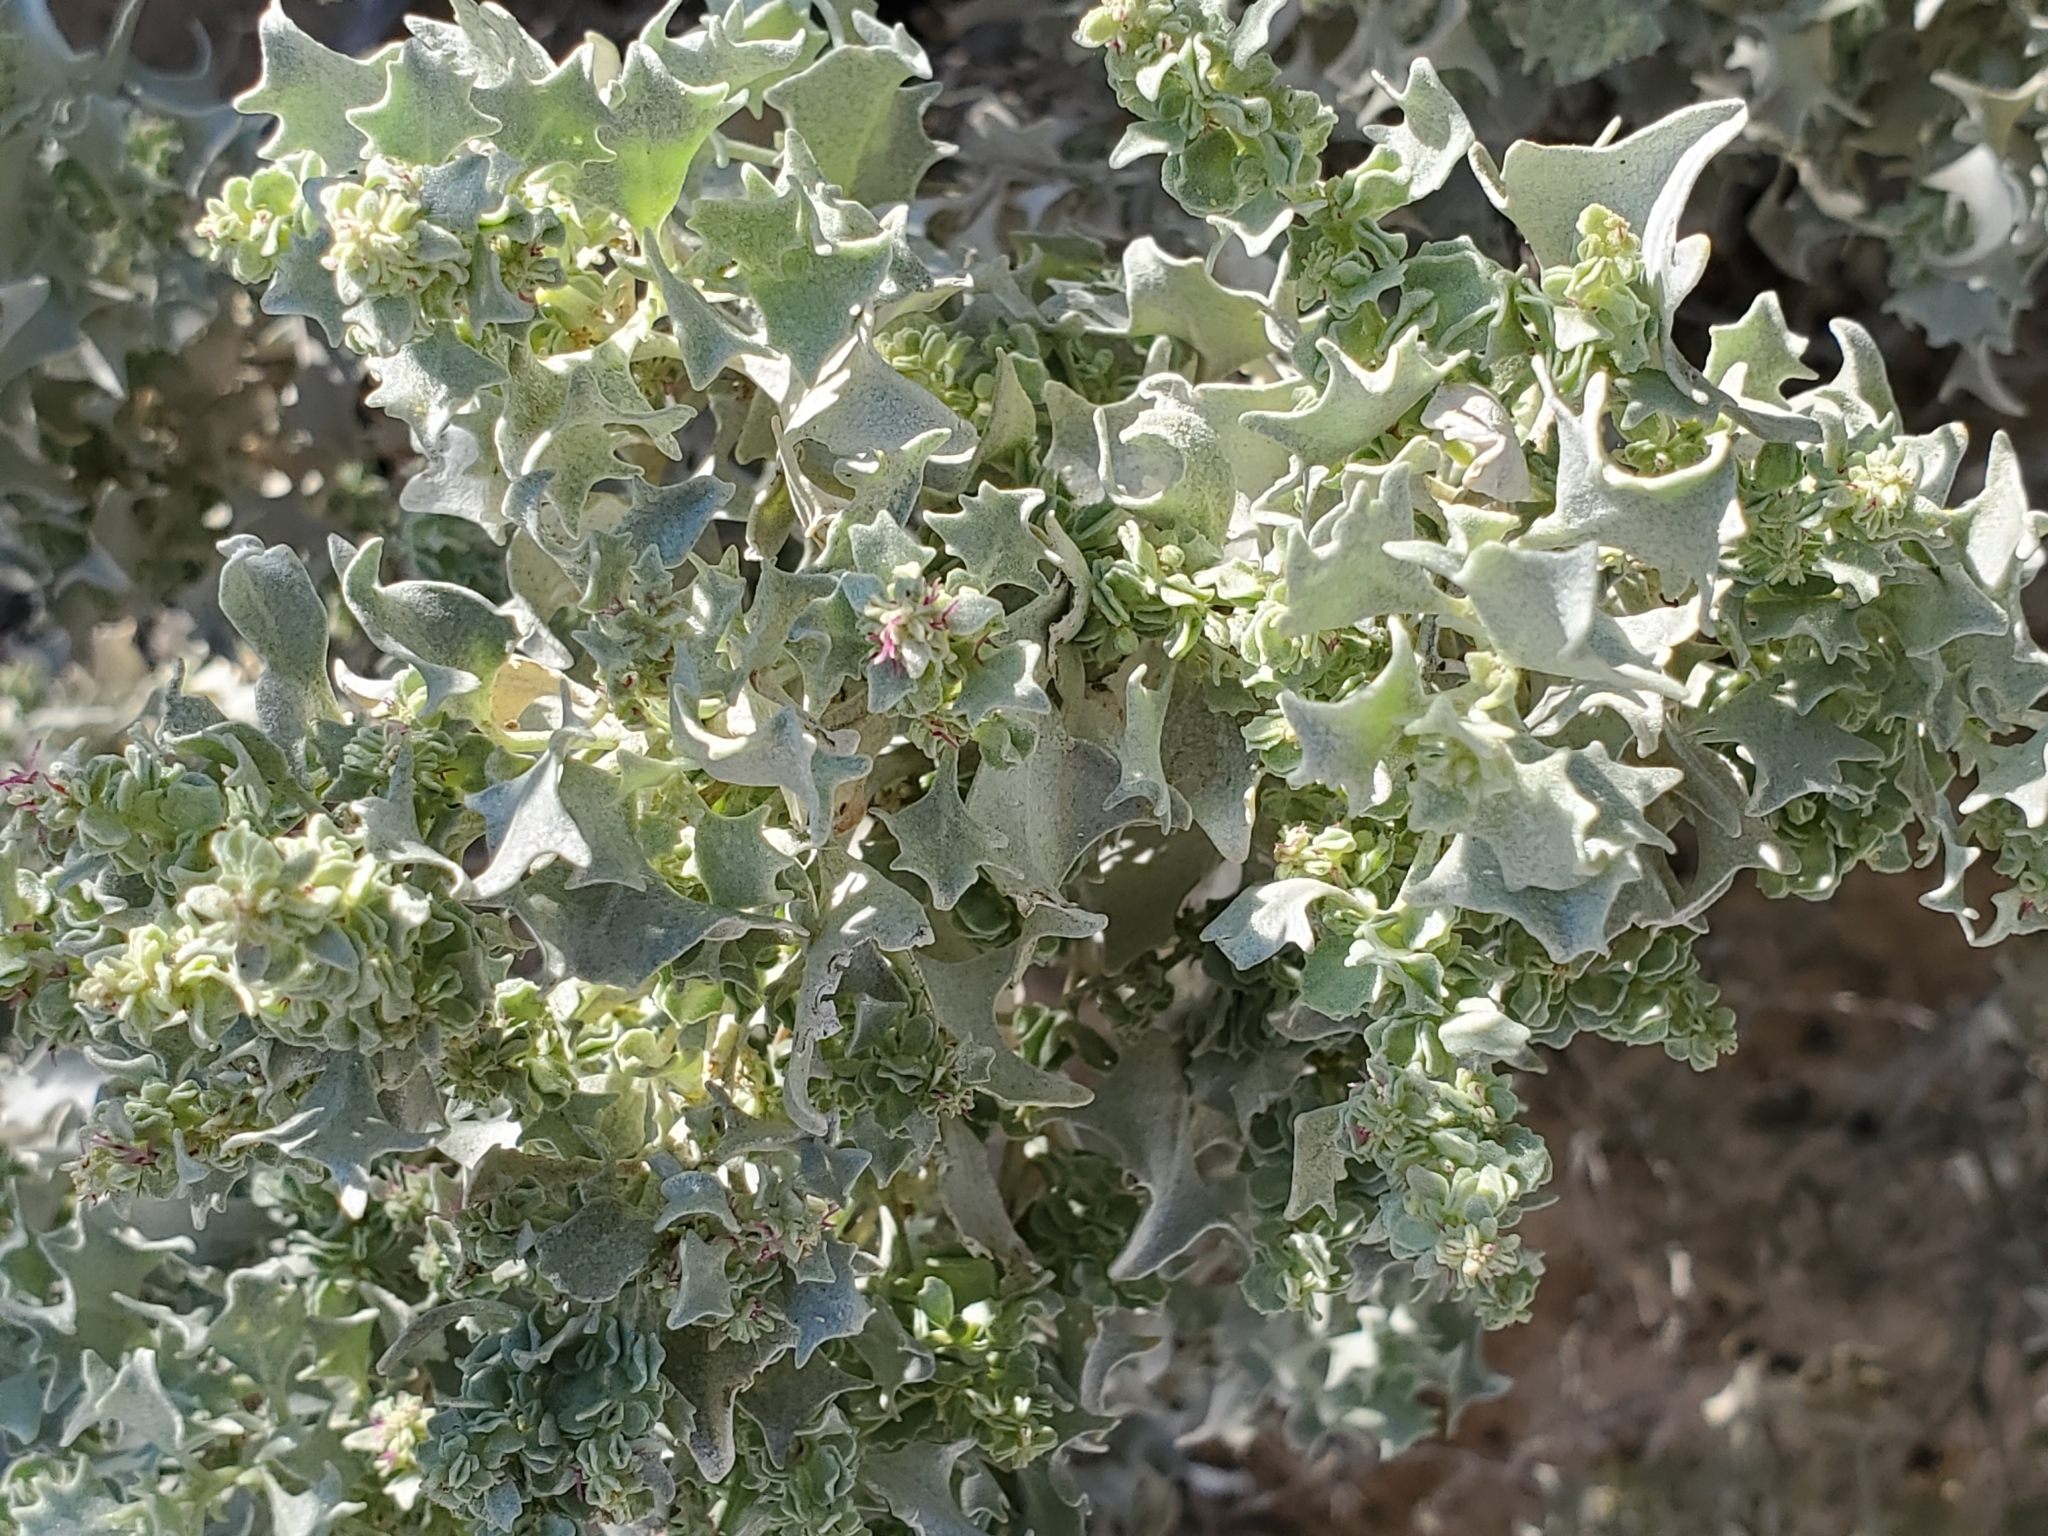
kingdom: Plantae
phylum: Tracheophyta
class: Magnoliopsida
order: Caryophyllales
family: Amaranthaceae
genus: Atriplex
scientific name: Atriplex hymenelytra
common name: Desert-holly
